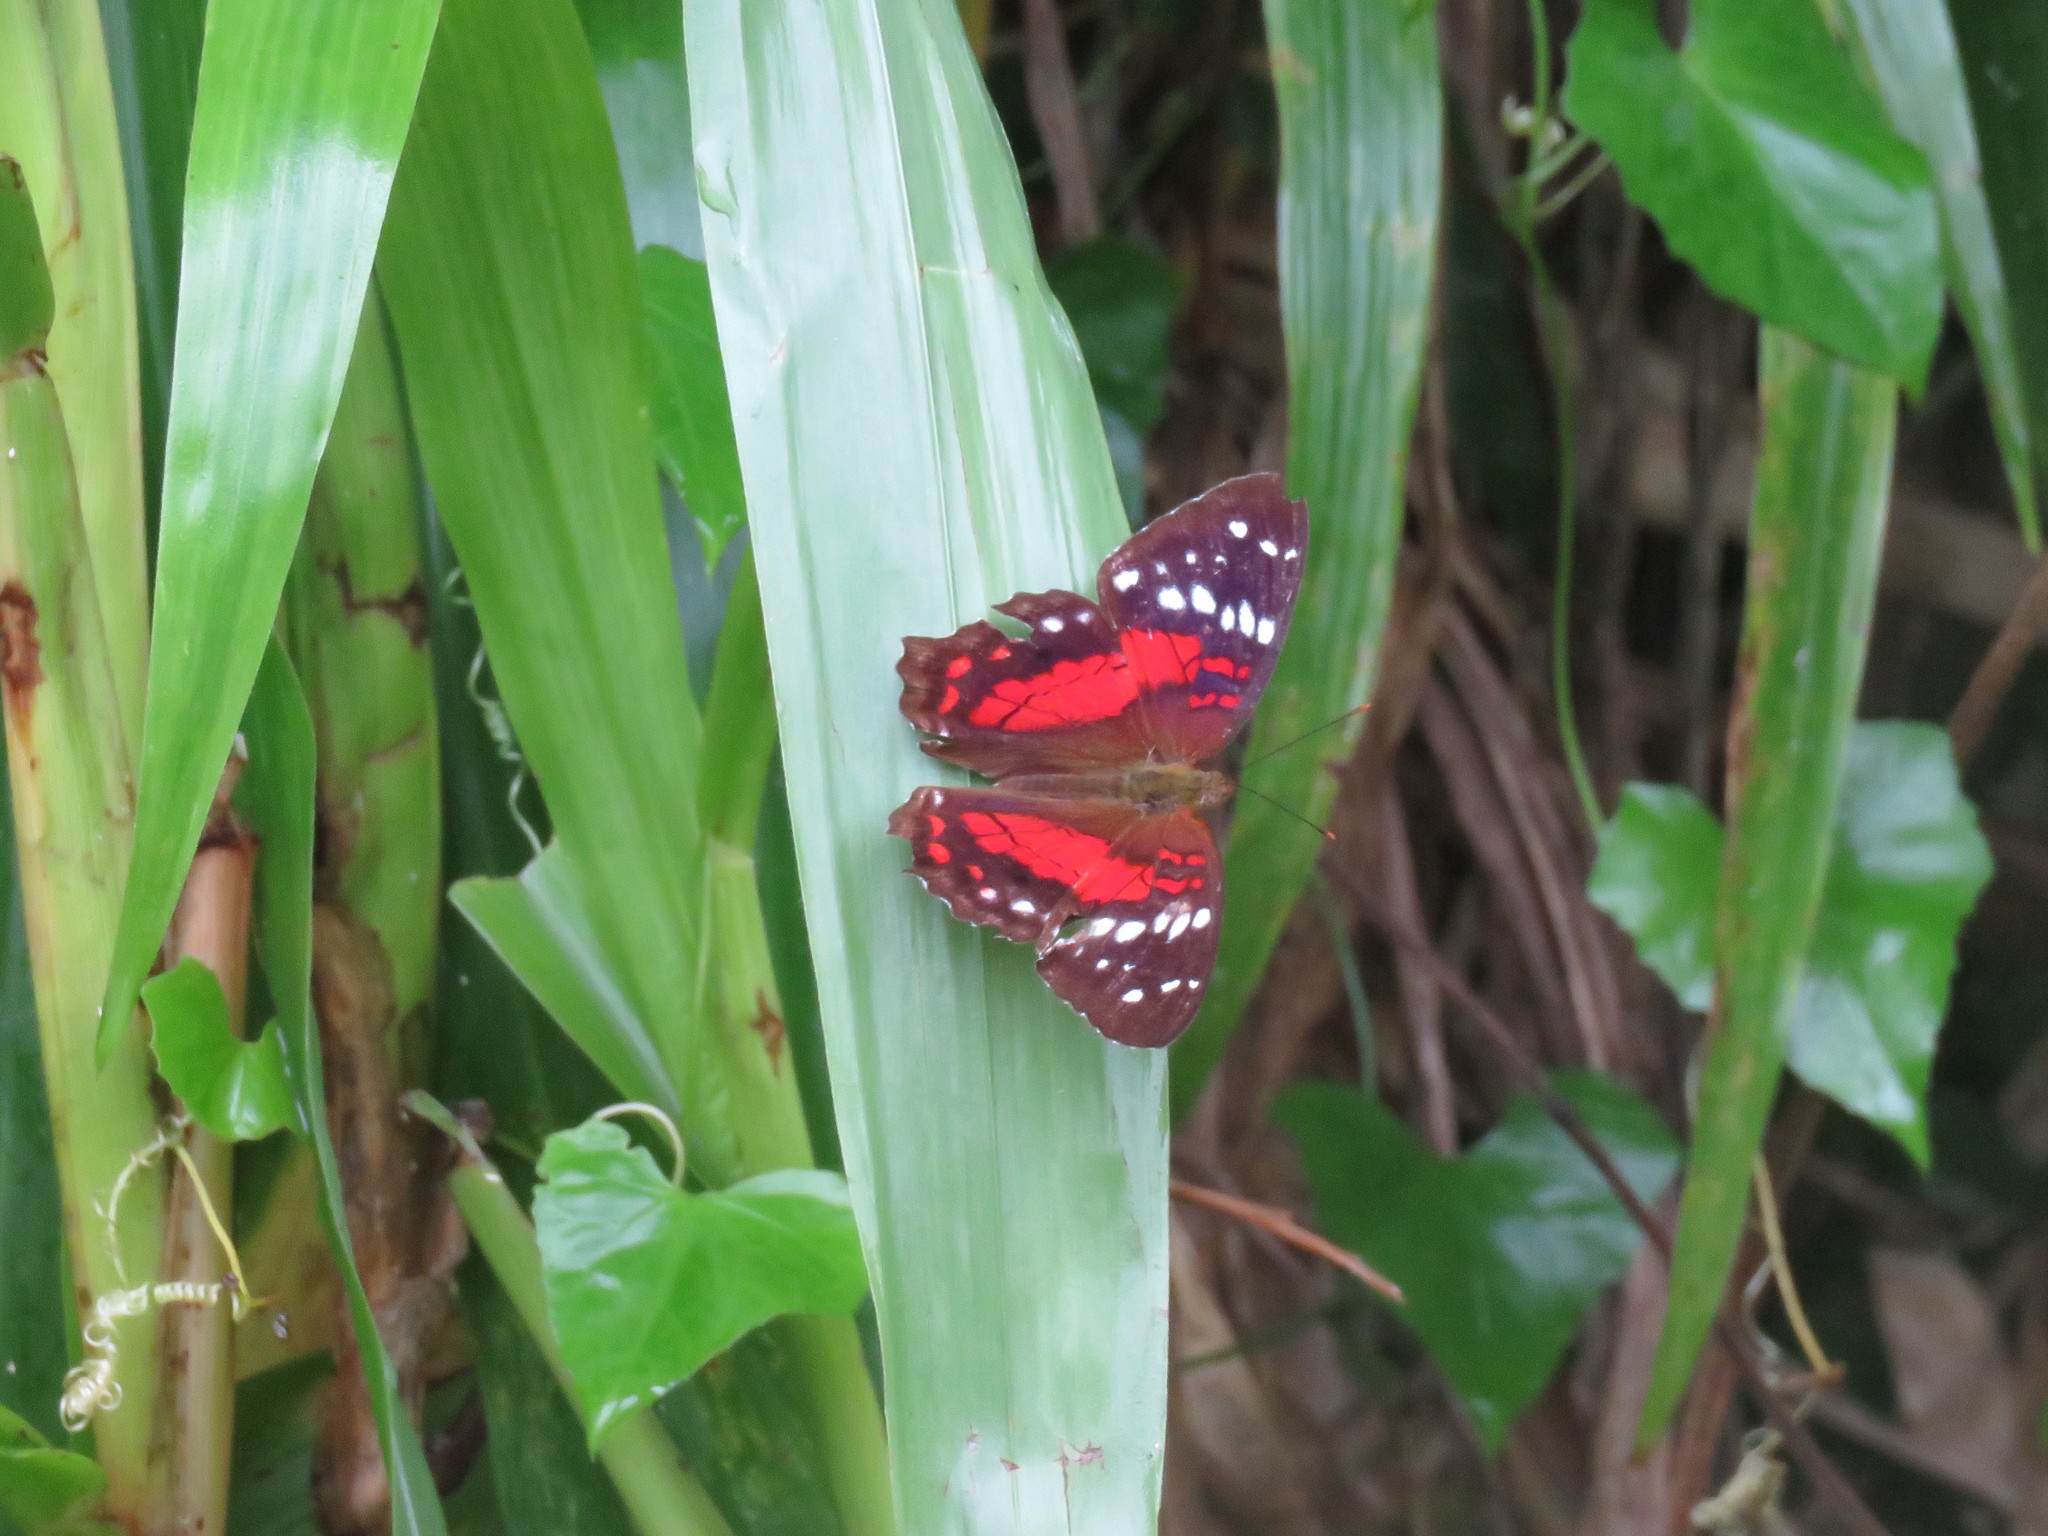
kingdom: Animalia
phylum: Arthropoda
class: Insecta
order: Lepidoptera
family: Nymphalidae
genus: Anartia
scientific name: Anartia amathea
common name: Red peacock
